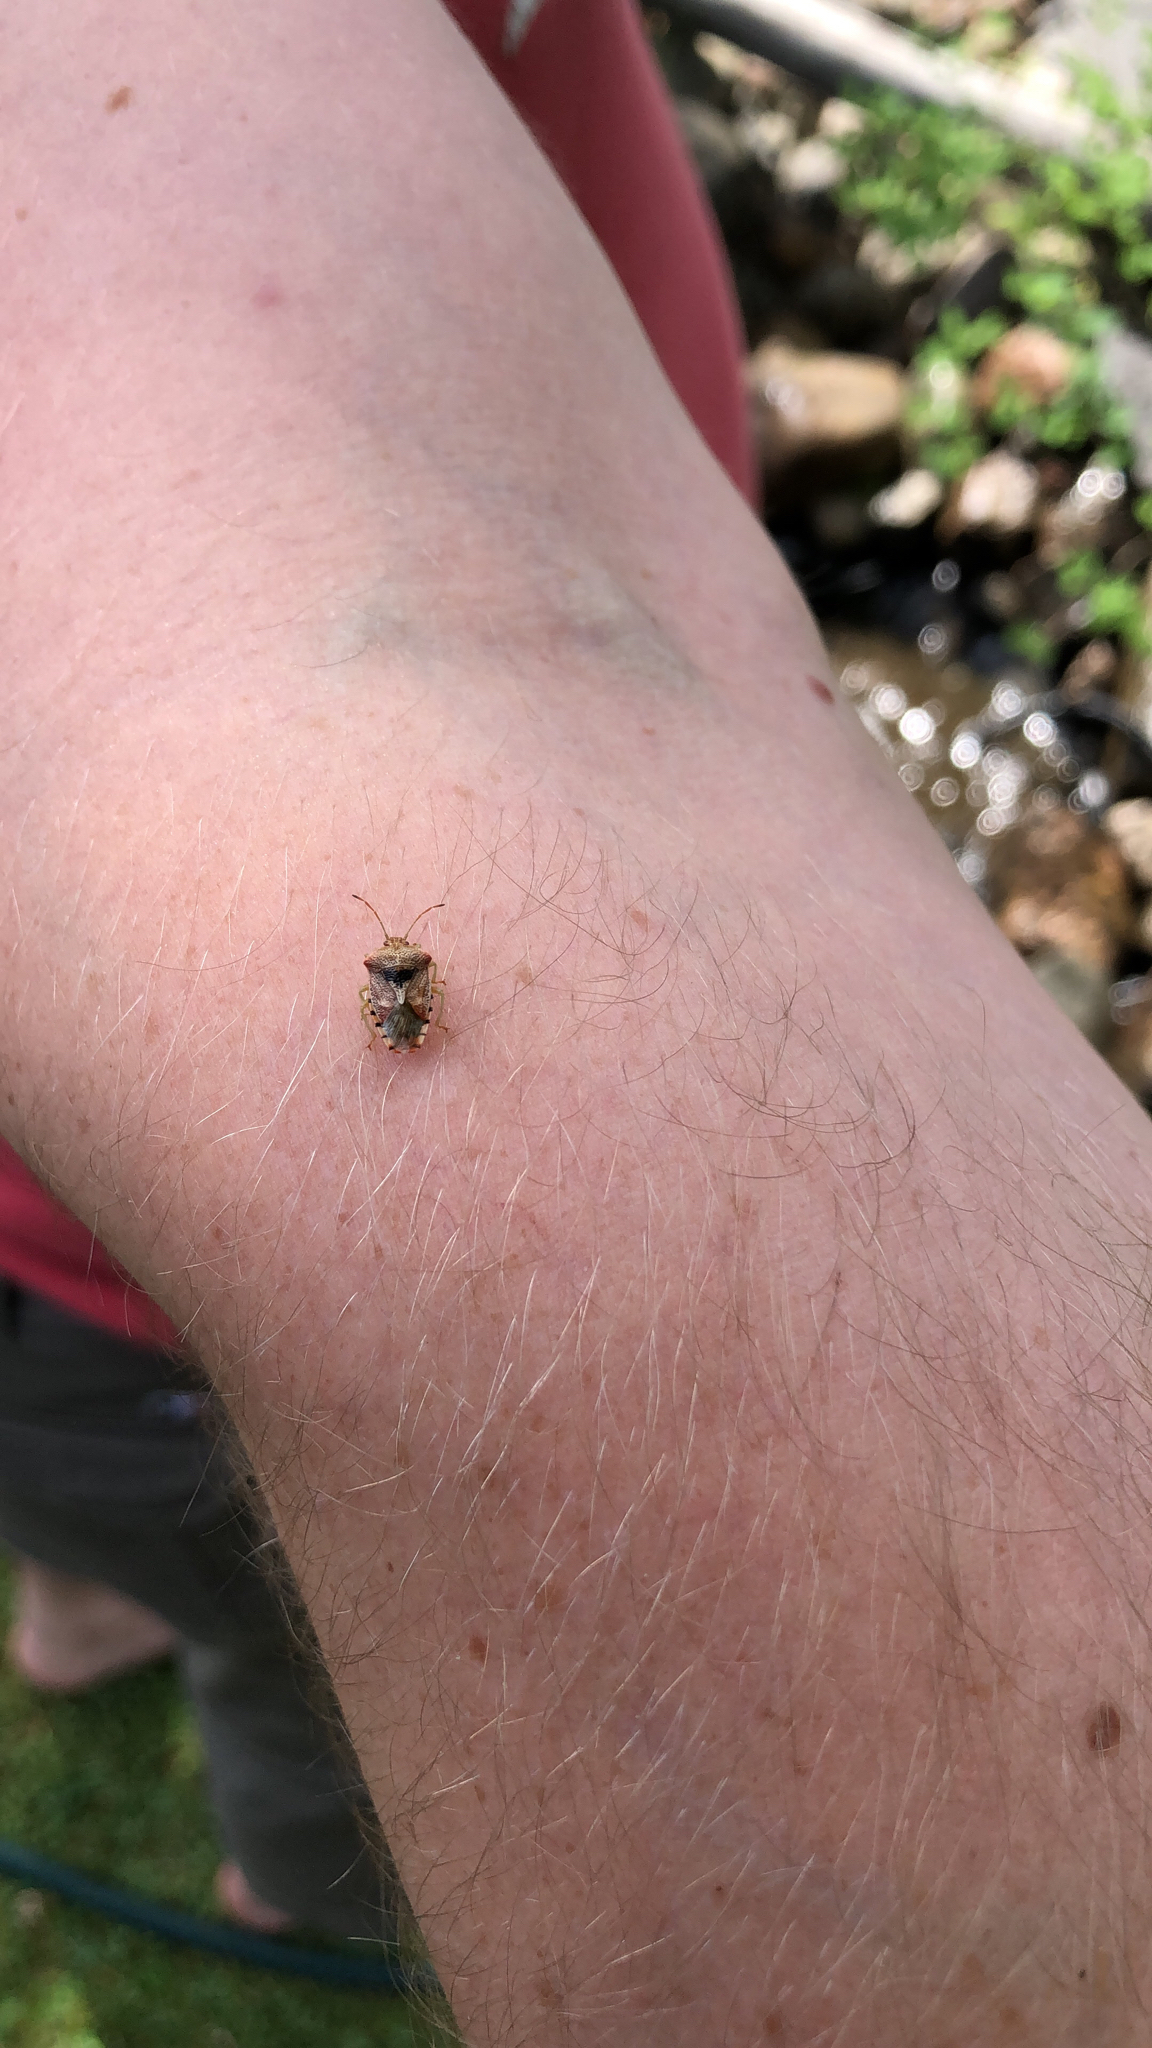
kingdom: Animalia
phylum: Arthropoda
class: Insecta
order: Hemiptera
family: Acanthosomatidae
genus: Elasmucha
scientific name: Elasmucha grisea
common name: Parent bug
